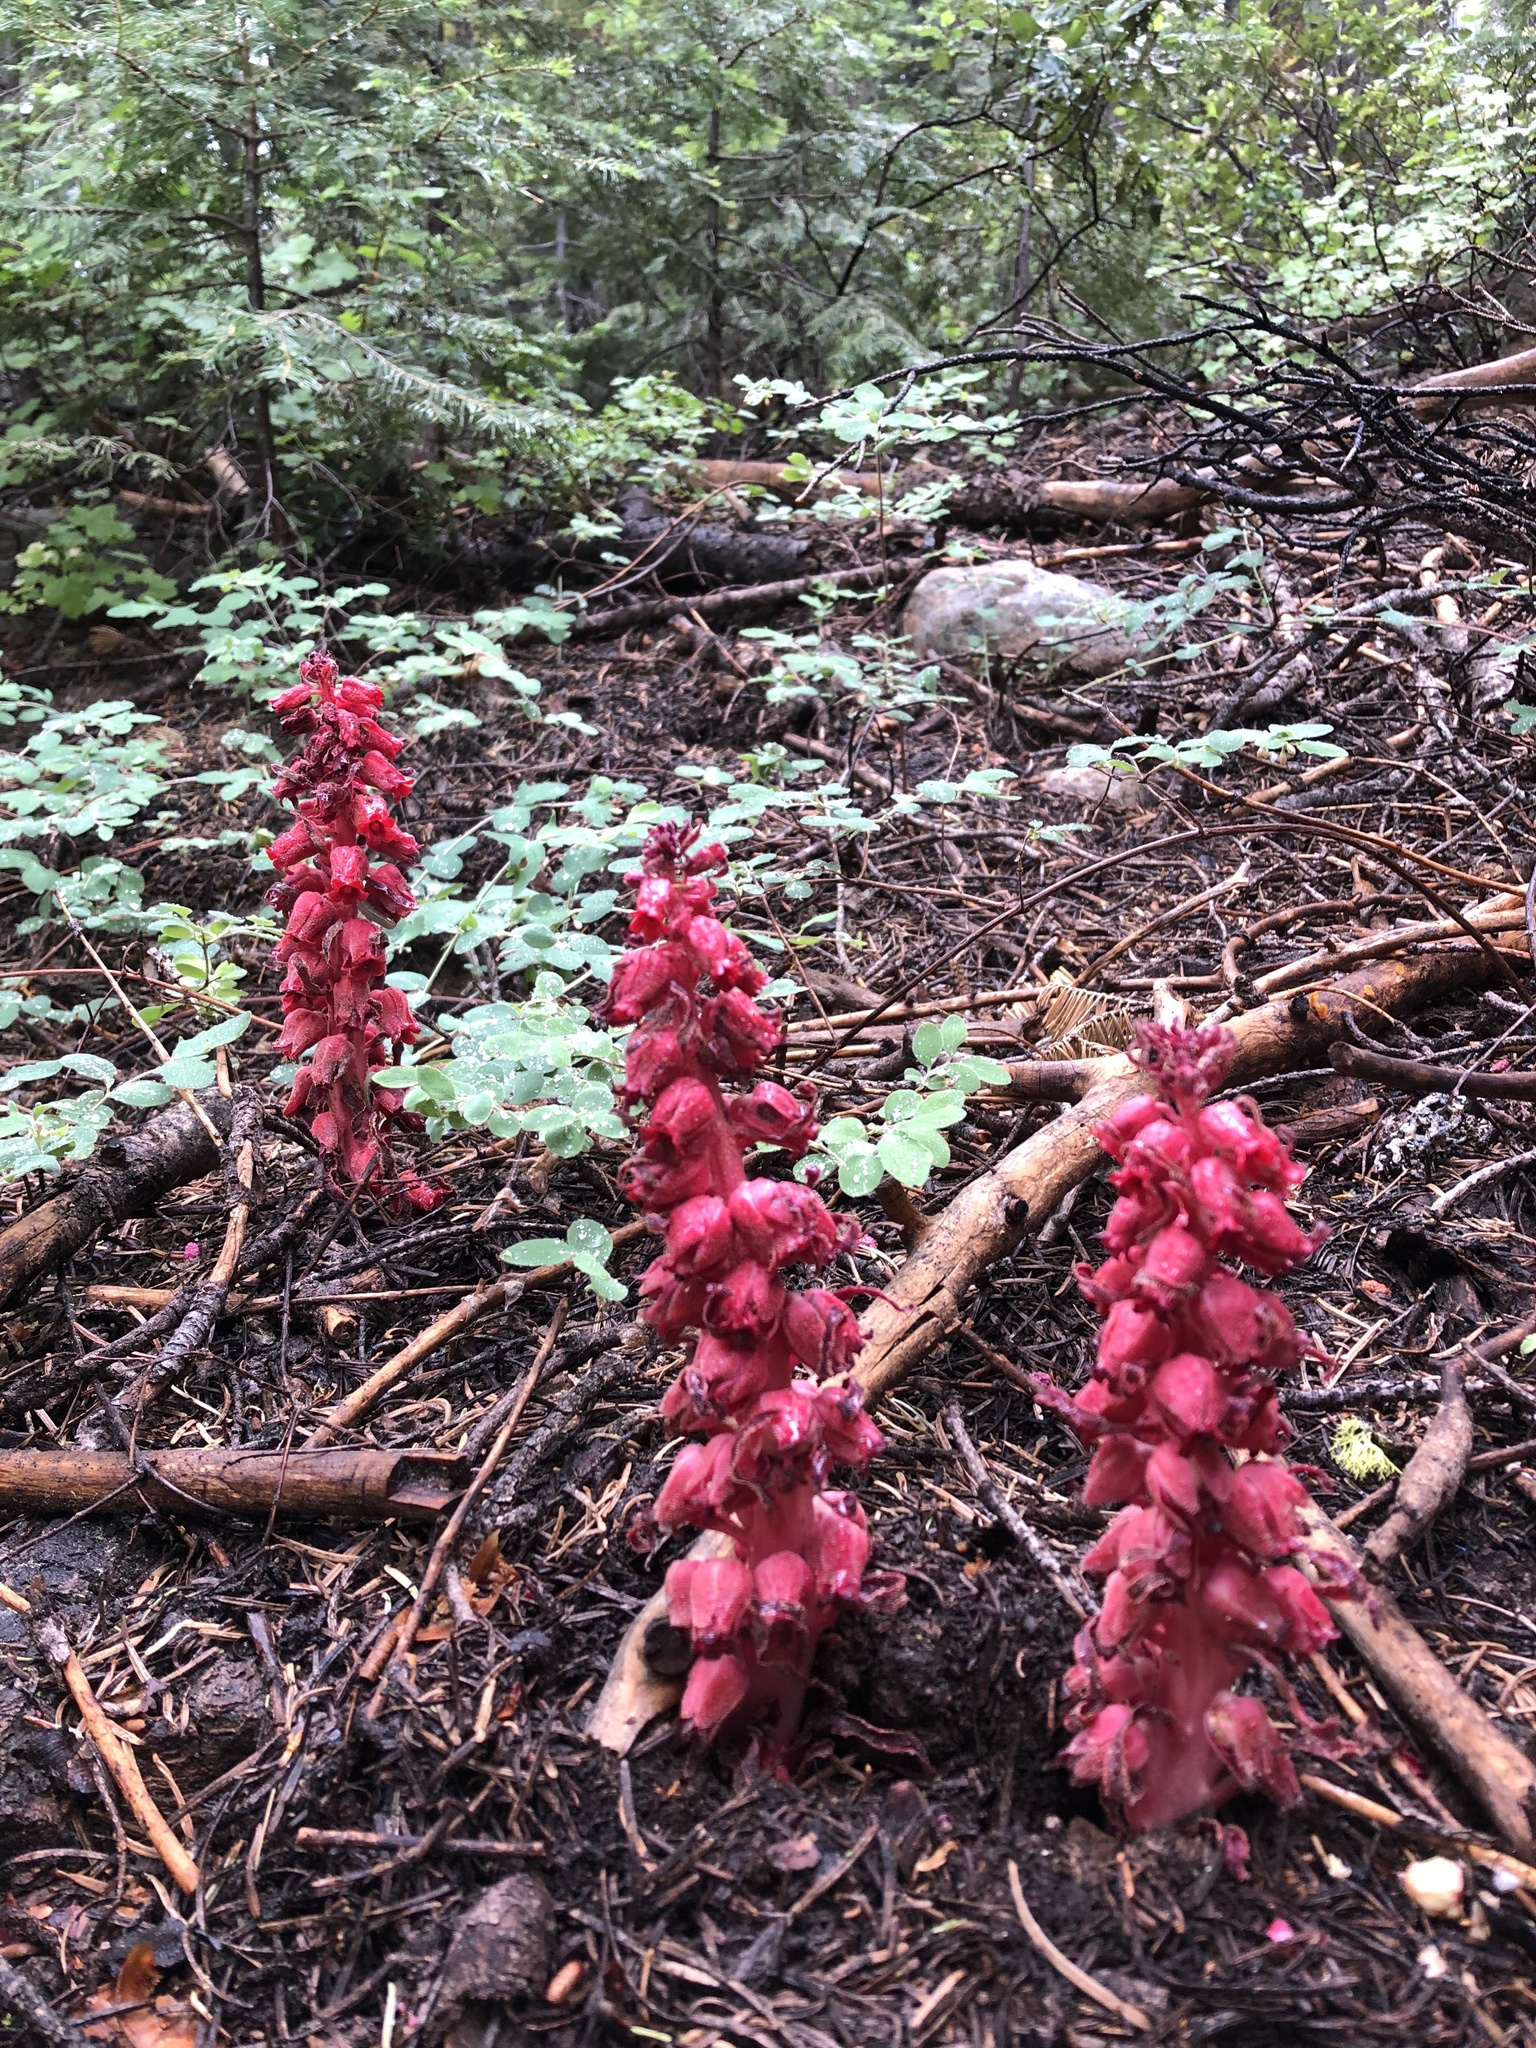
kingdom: Plantae
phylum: Tracheophyta
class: Magnoliopsida
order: Ericales
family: Ericaceae
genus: Sarcodes
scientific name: Sarcodes sanguinea
